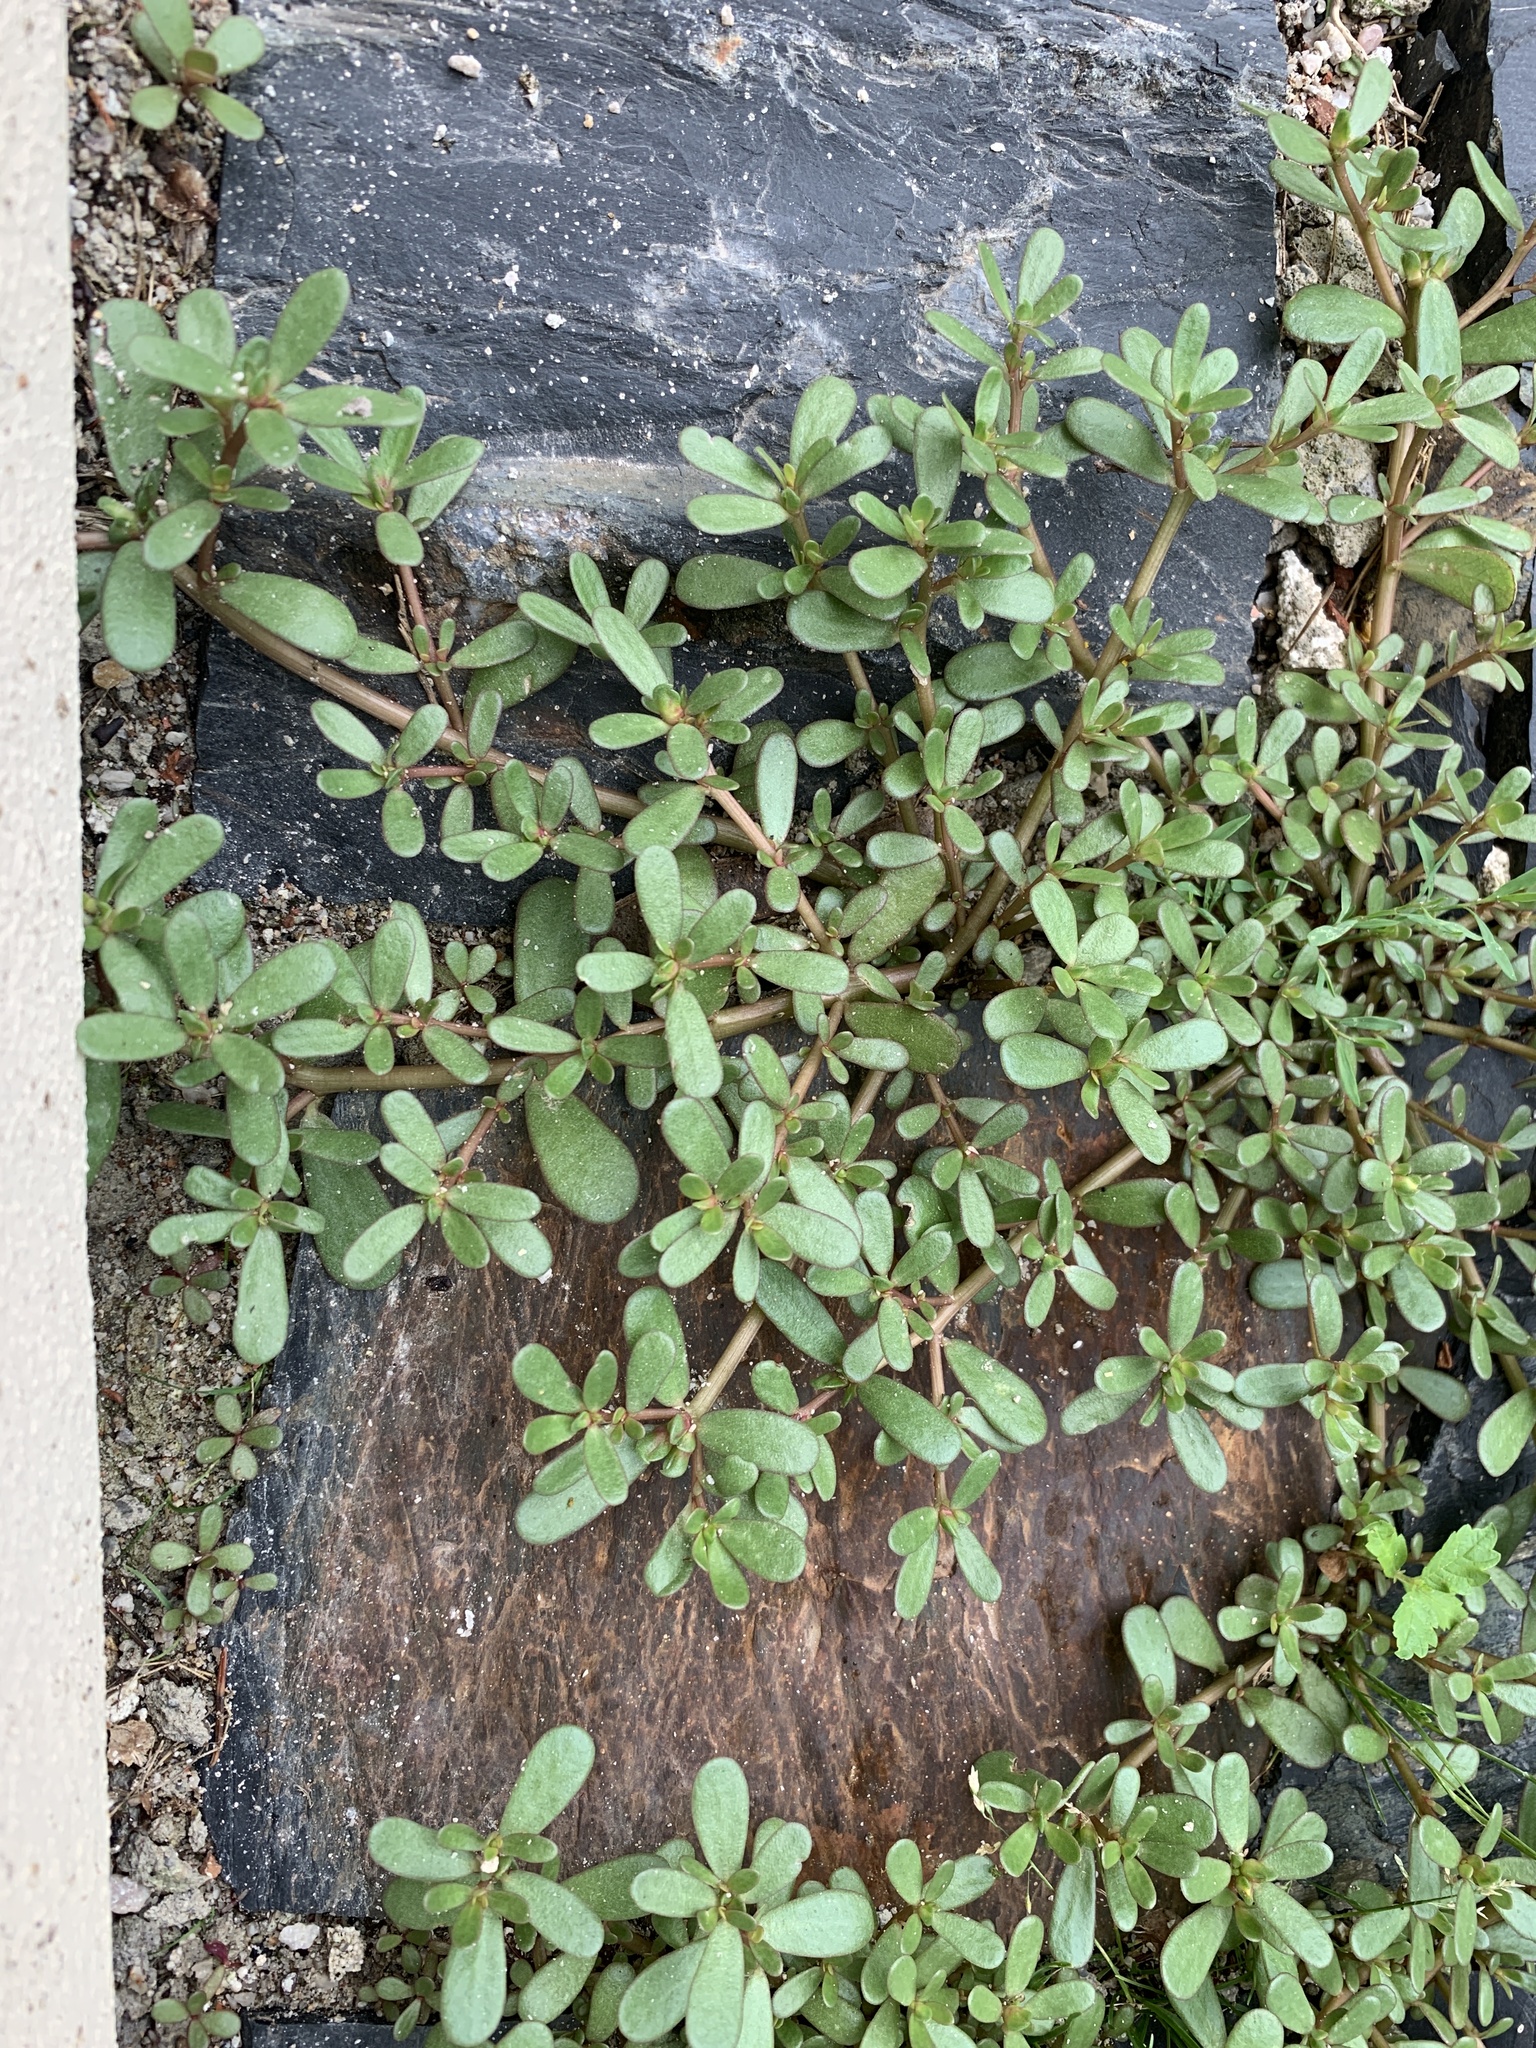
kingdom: Plantae
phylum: Tracheophyta
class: Magnoliopsida
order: Caryophyllales
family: Portulacaceae
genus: Portulaca
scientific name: Portulaca oleracea
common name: Common purslane
